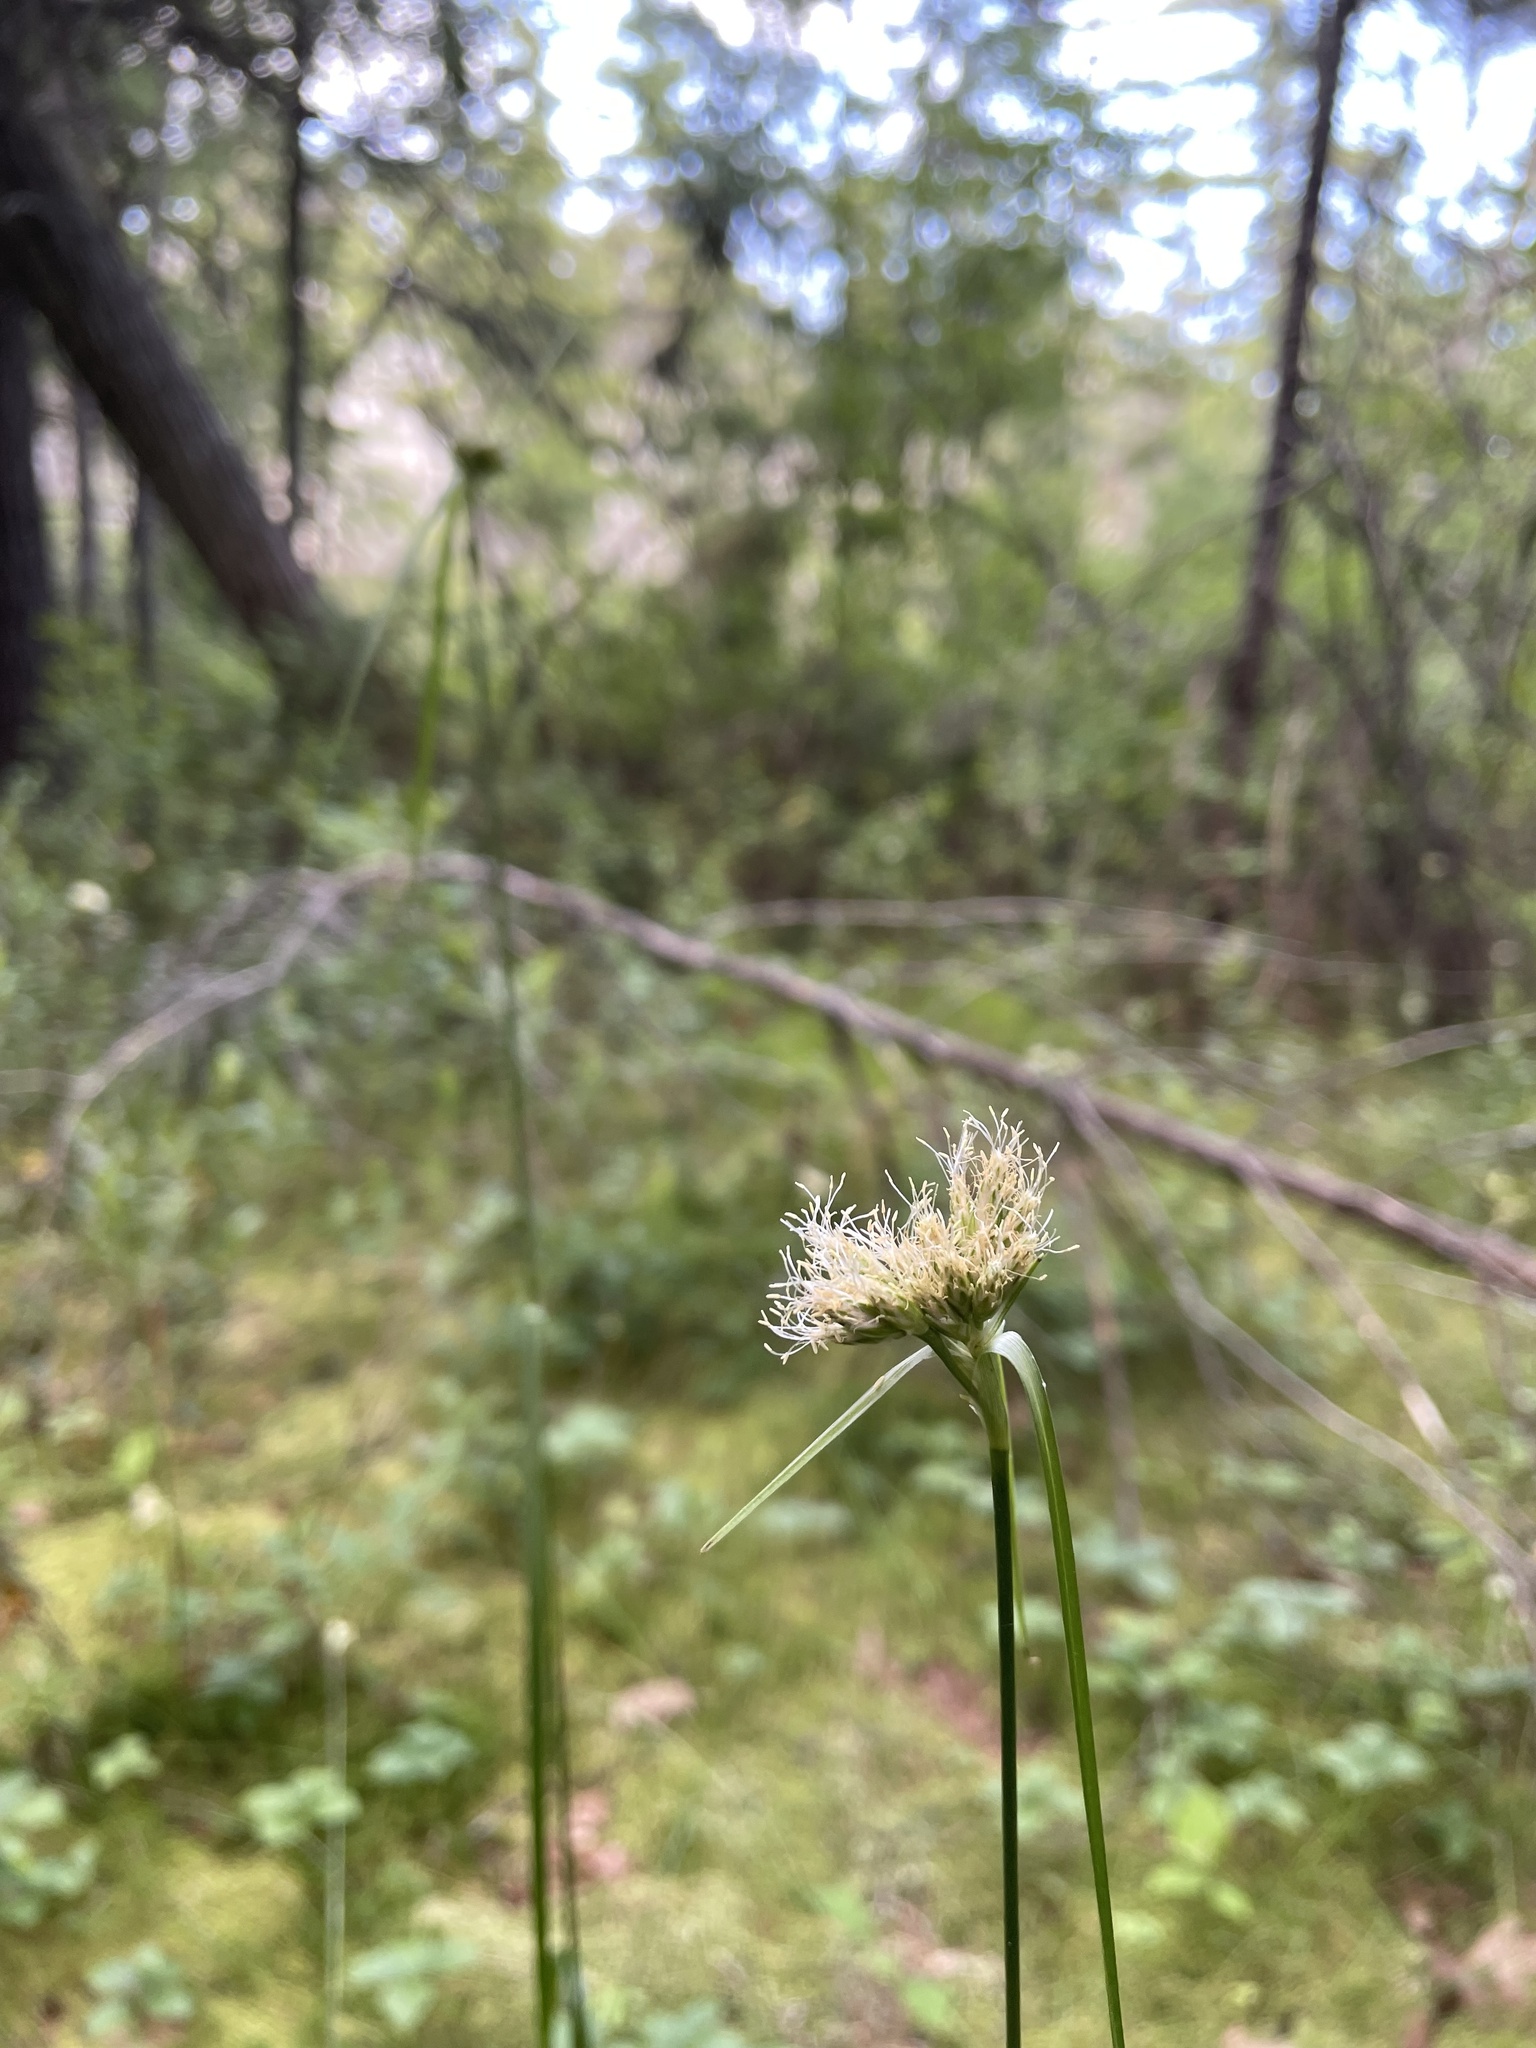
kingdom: Plantae
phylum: Tracheophyta
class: Liliopsida
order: Poales
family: Cyperaceae
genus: Eriophorum
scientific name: Eriophorum virginicum
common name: Tawny cottongrass
